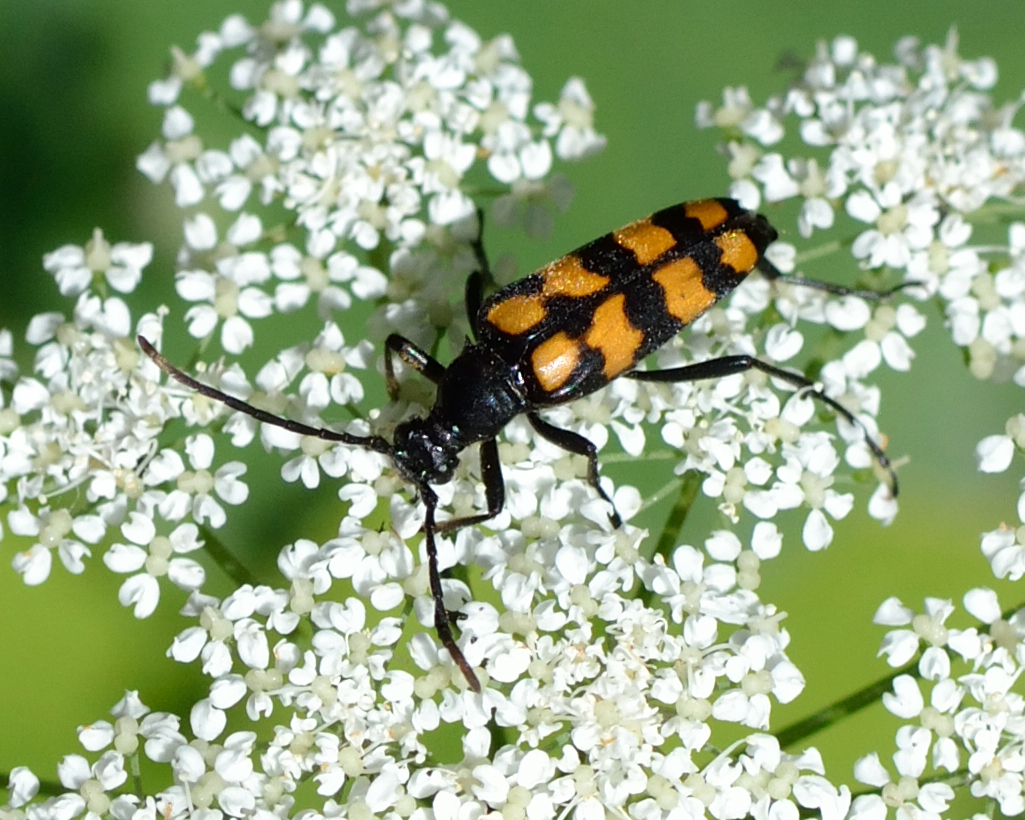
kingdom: Animalia
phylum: Arthropoda
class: Insecta
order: Coleoptera
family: Cerambycidae
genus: Leptura
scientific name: Leptura quadrifasciata
